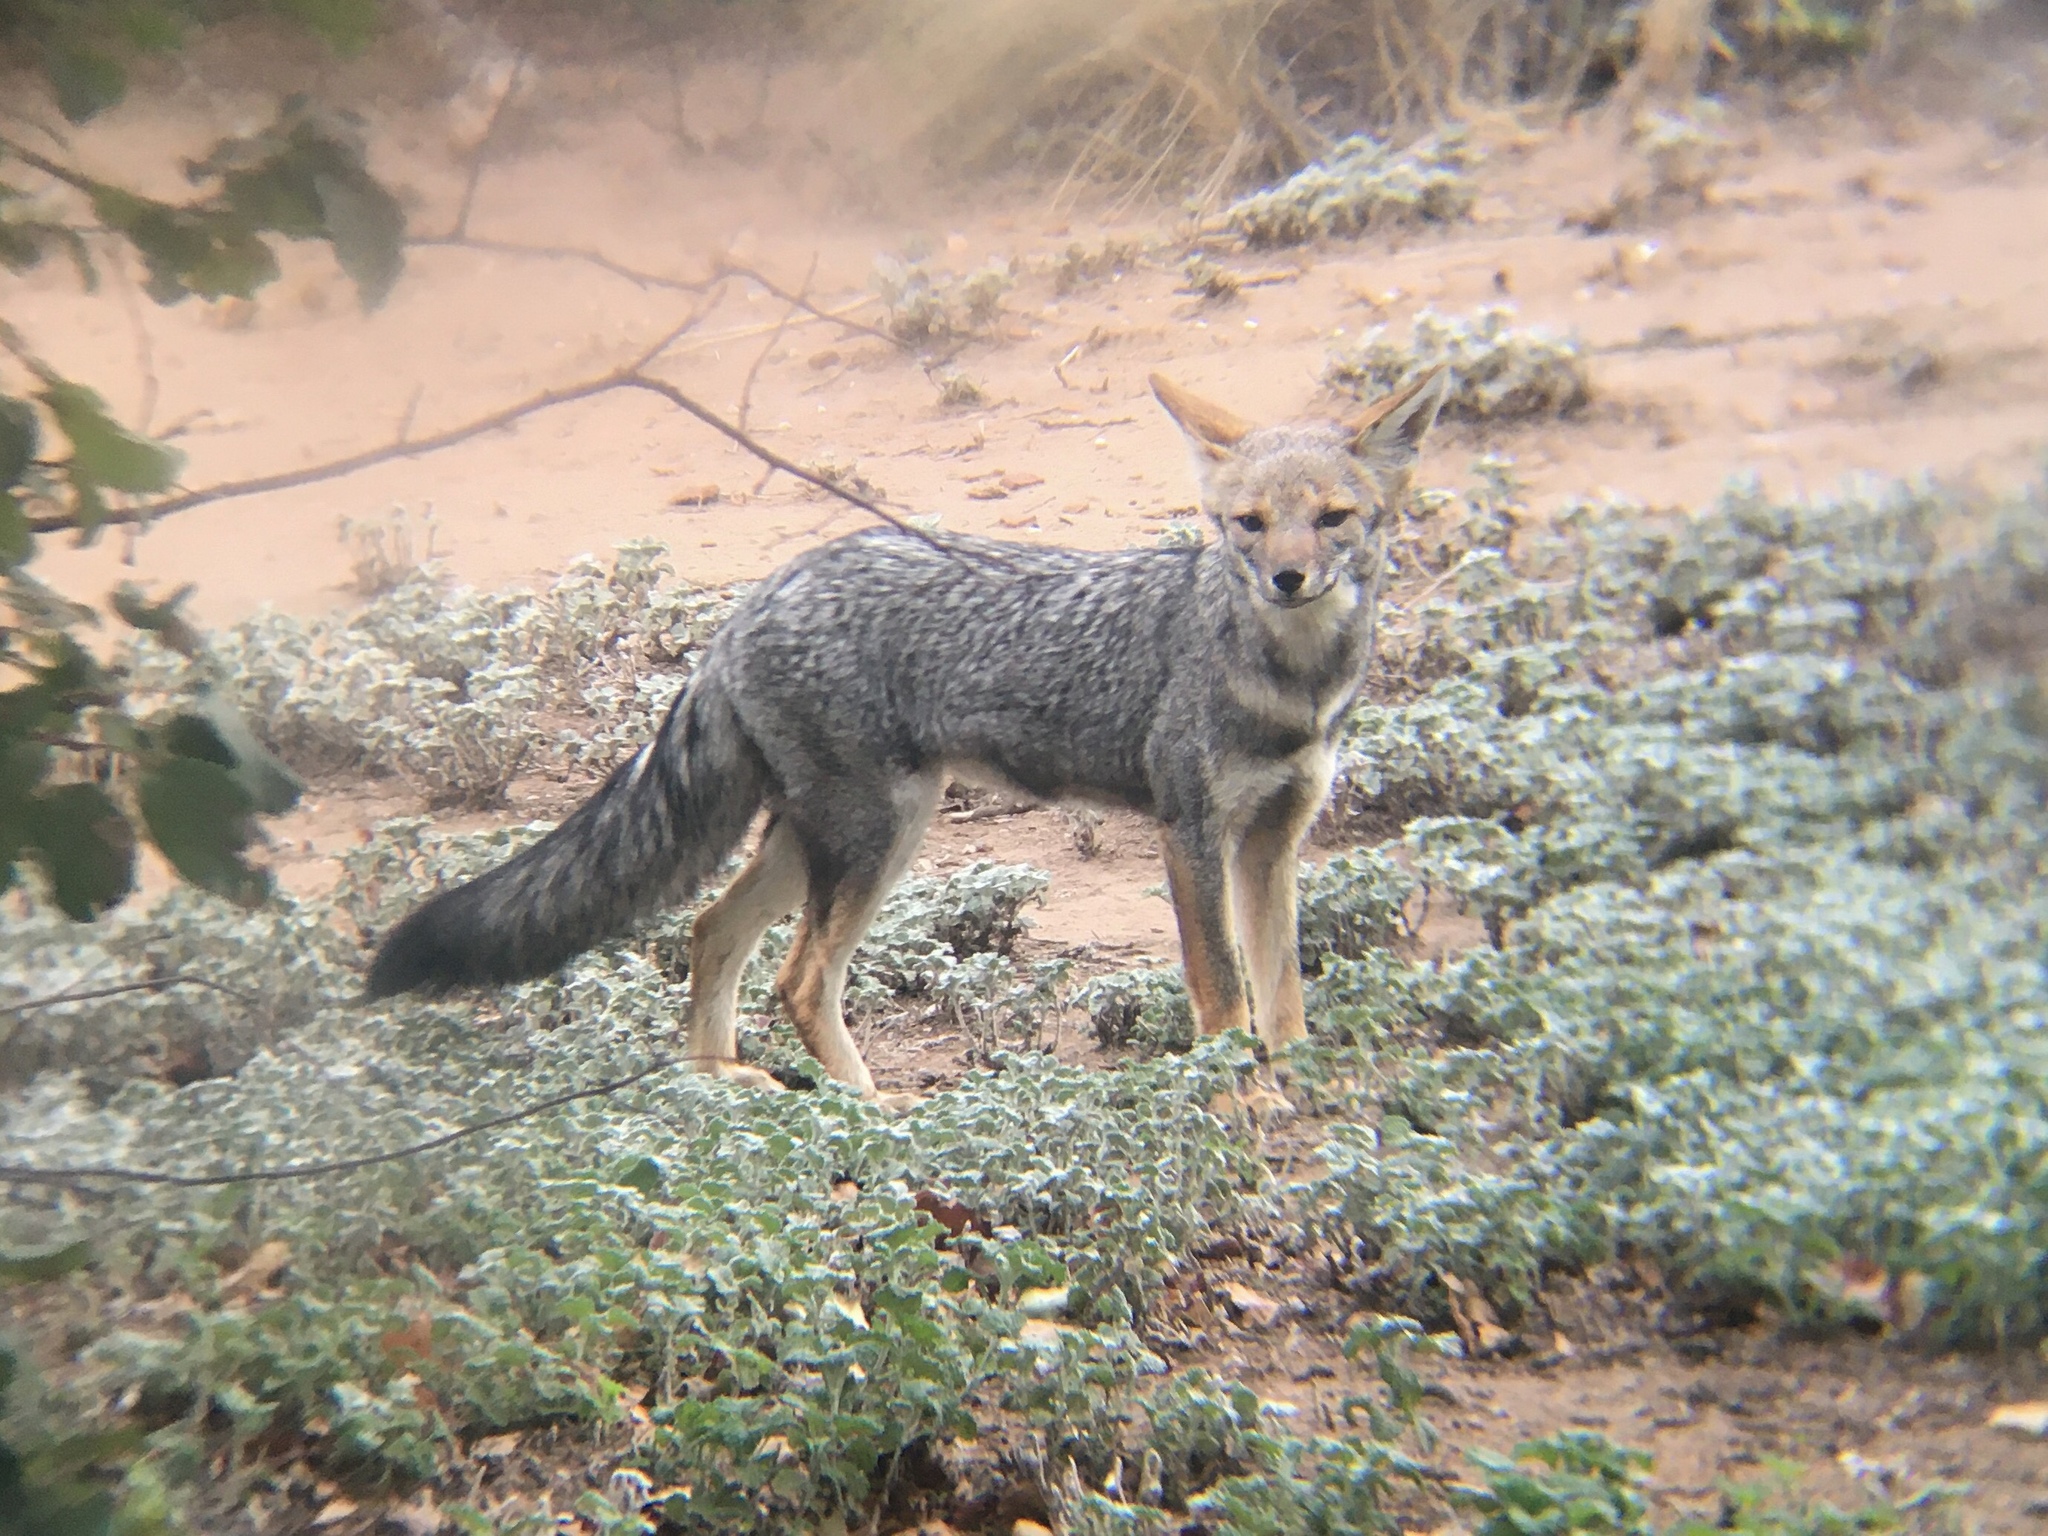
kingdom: Animalia
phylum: Chordata
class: Mammalia
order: Carnivora
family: Canidae
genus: Lycalopex
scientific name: Lycalopex gymnocercus
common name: Pampas fox
